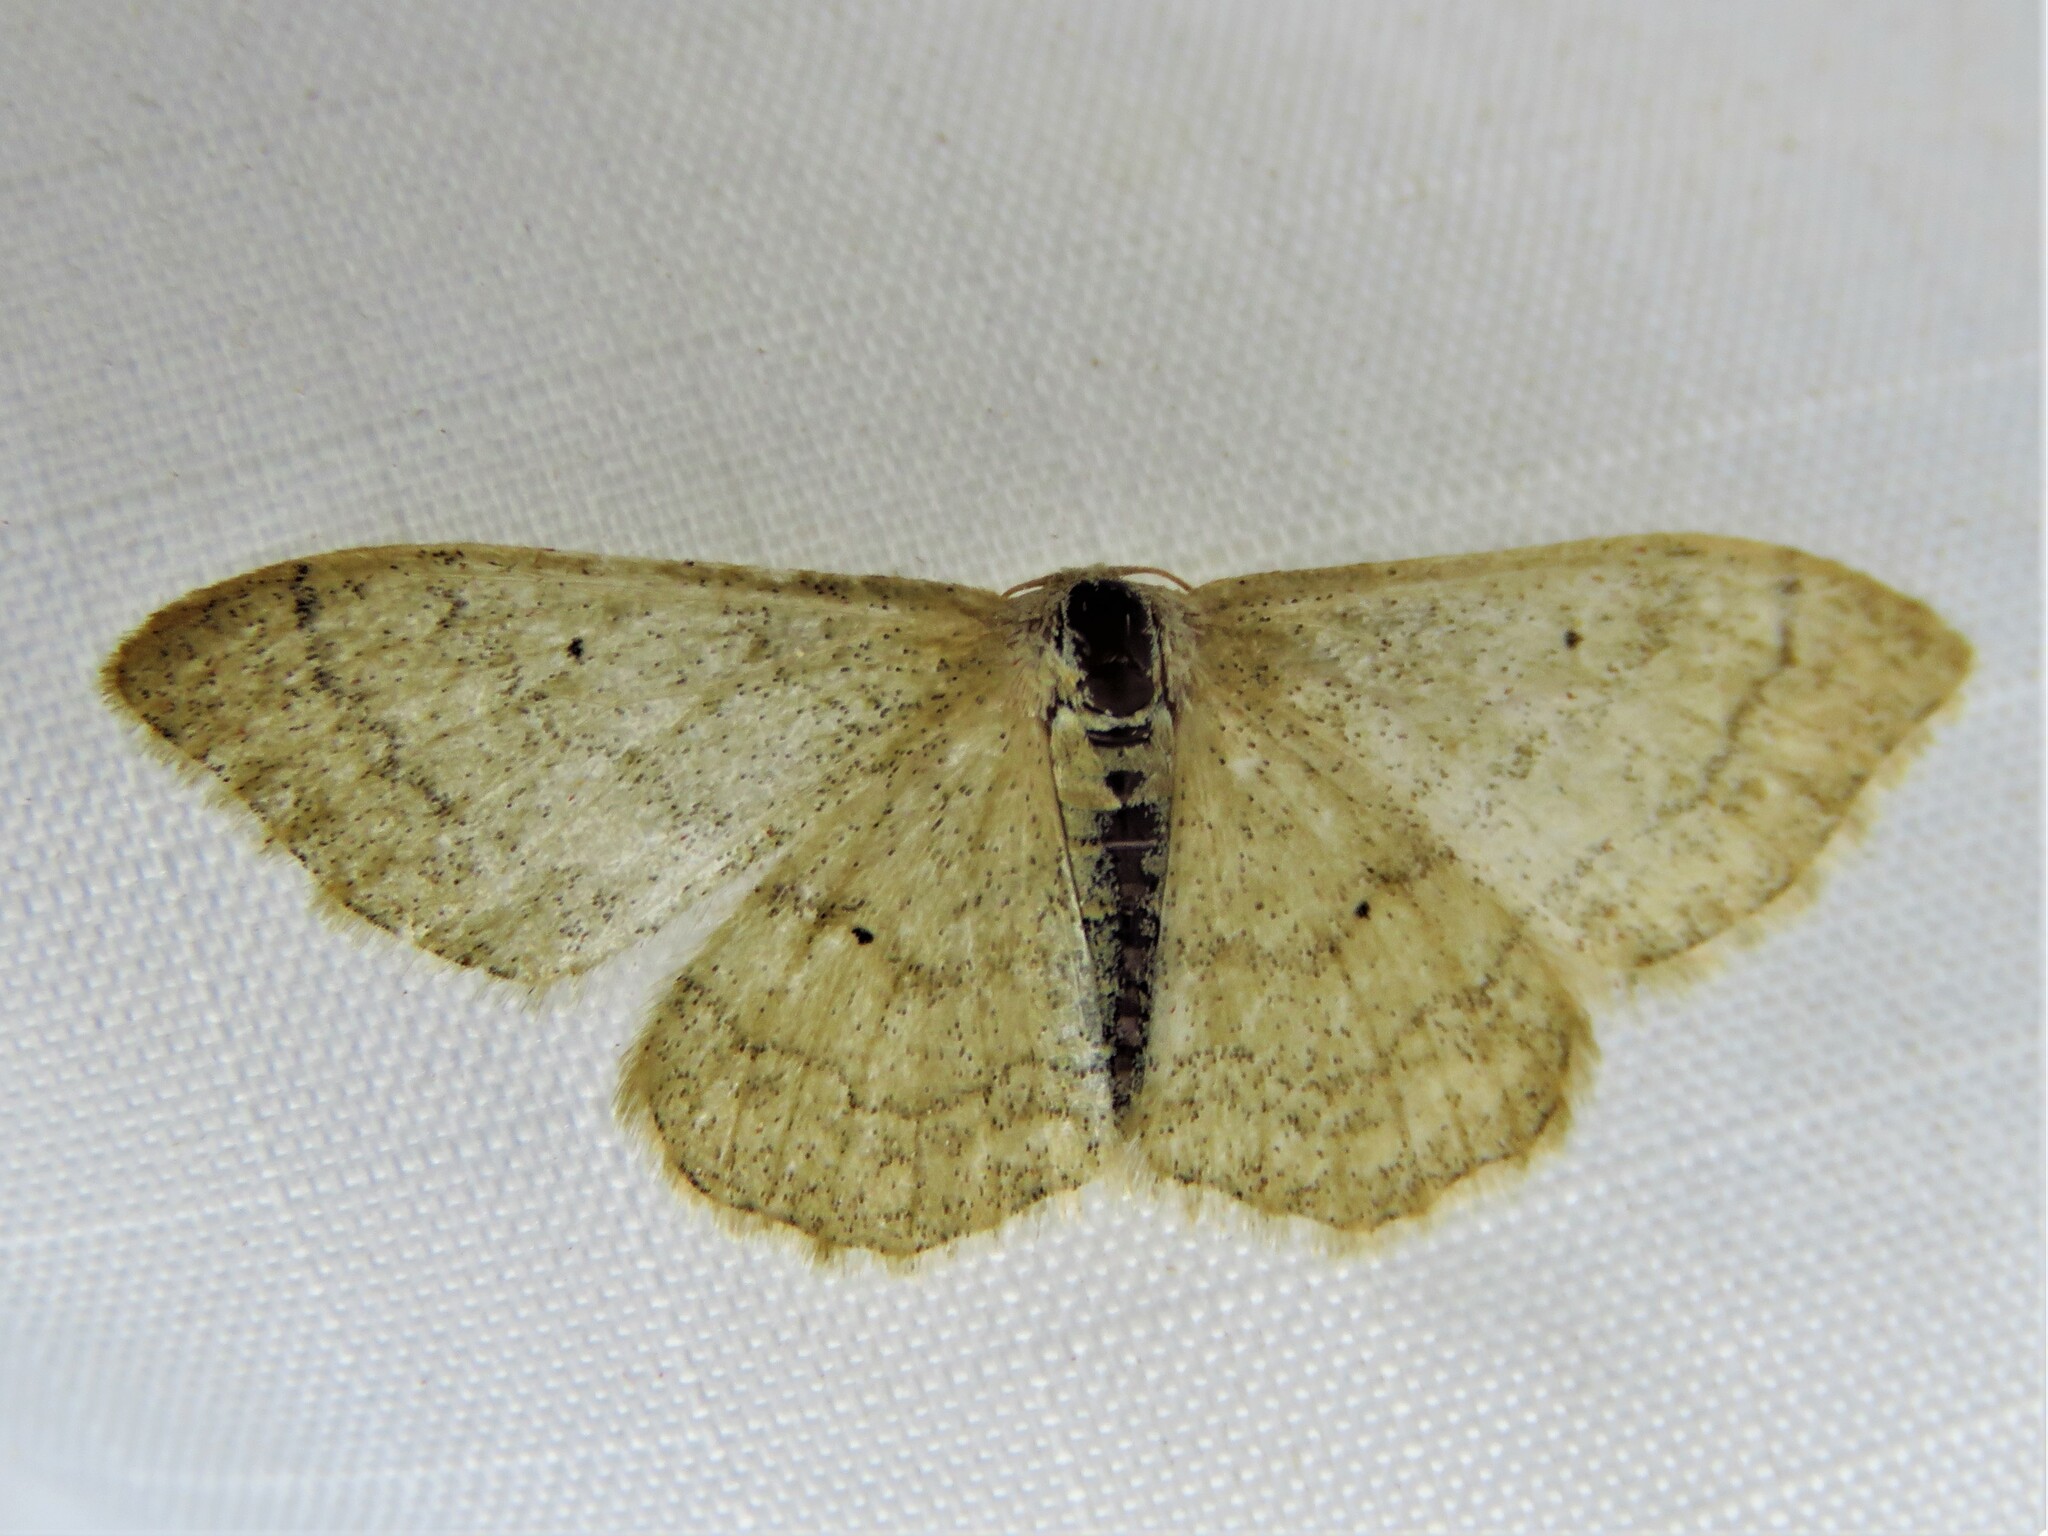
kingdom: Animalia
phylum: Arthropoda
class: Insecta
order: Lepidoptera
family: Geometridae
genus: Idaea
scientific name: Idaea aversata
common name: Riband wave
